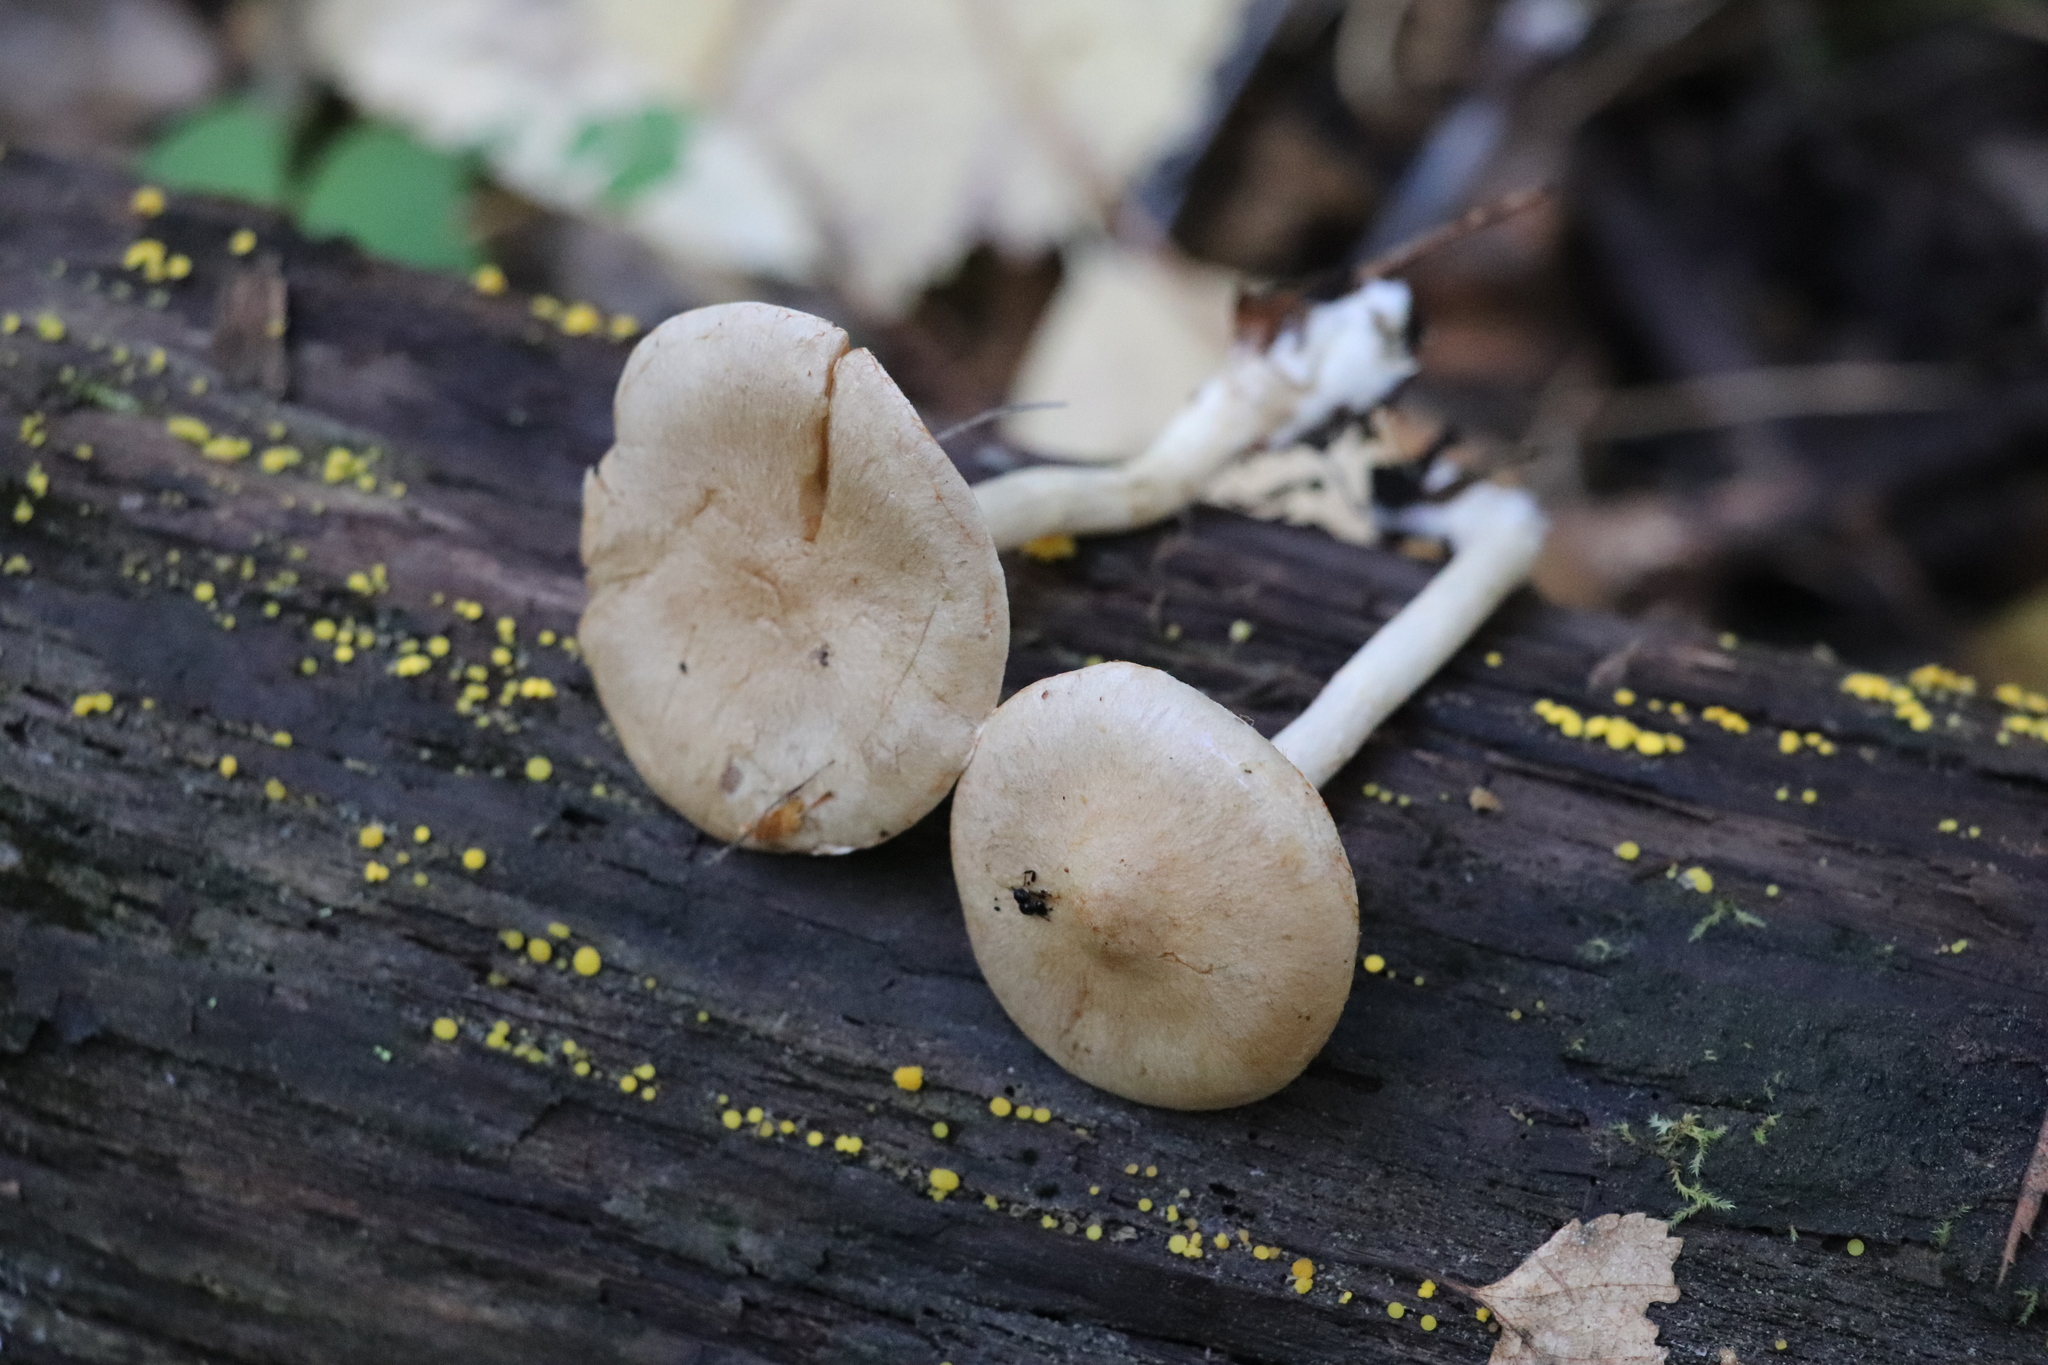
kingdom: Fungi
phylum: Basidiomycota
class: Agaricomycetes
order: Agaricales
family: Cortinariaceae
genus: Cortinarius
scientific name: Cortinarius anomalus
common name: Variable webcap
